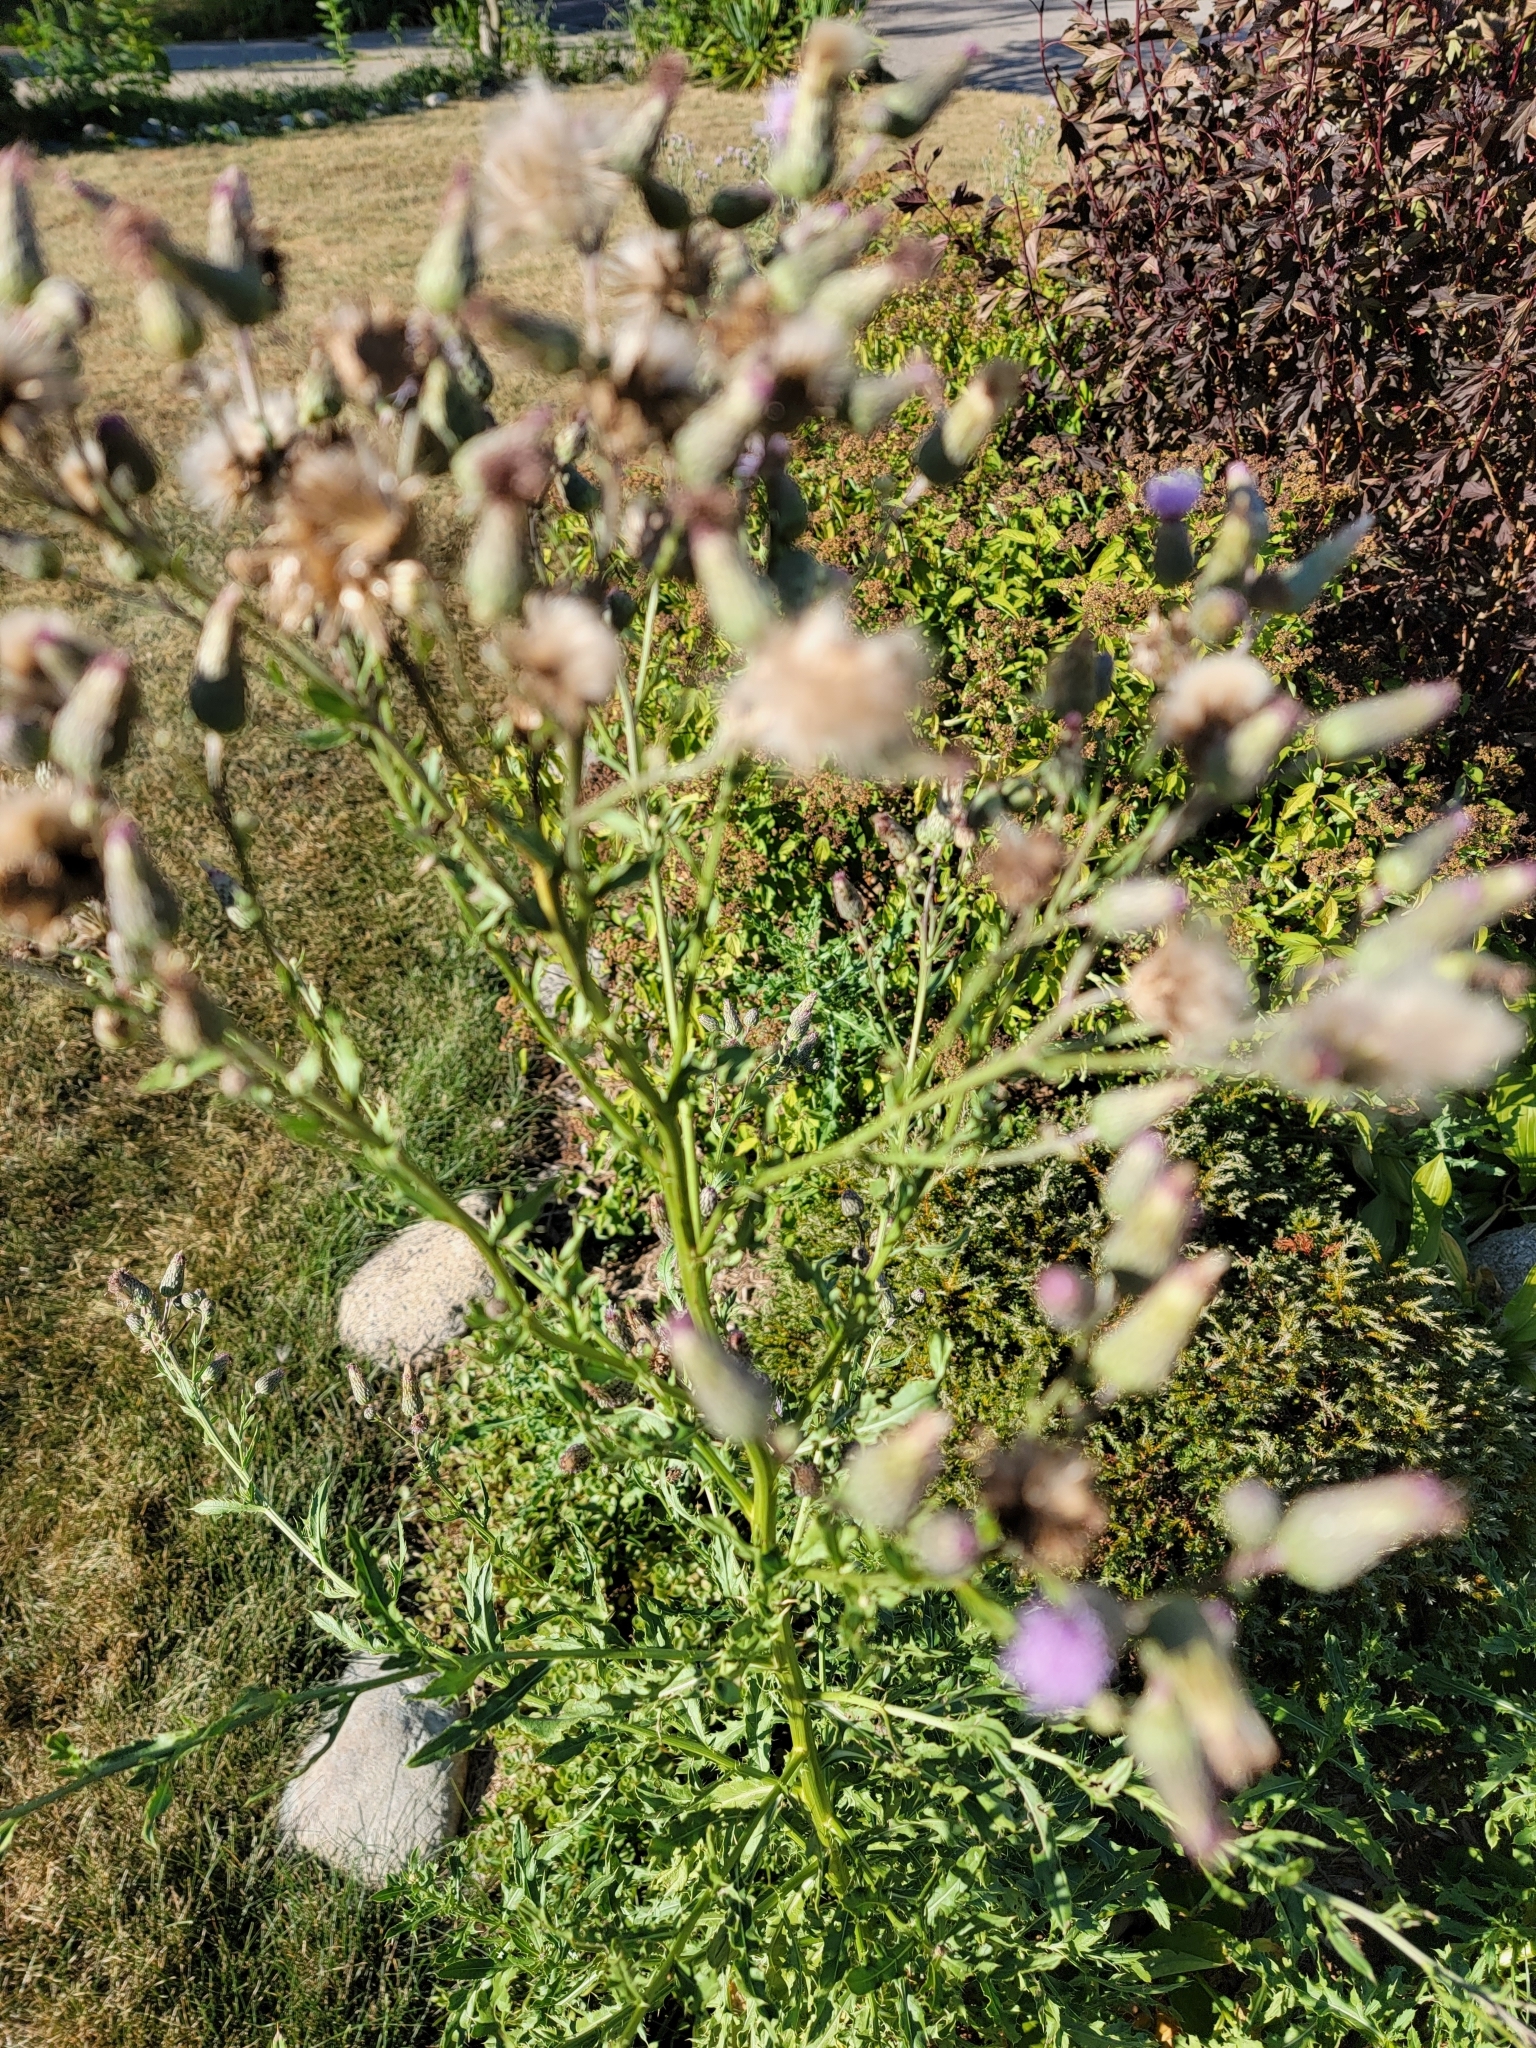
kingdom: Plantae
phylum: Tracheophyta
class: Magnoliopsida
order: Asterales
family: Asteraceae
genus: Cirsium
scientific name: Cirsium arvense
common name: Creeping thistle
